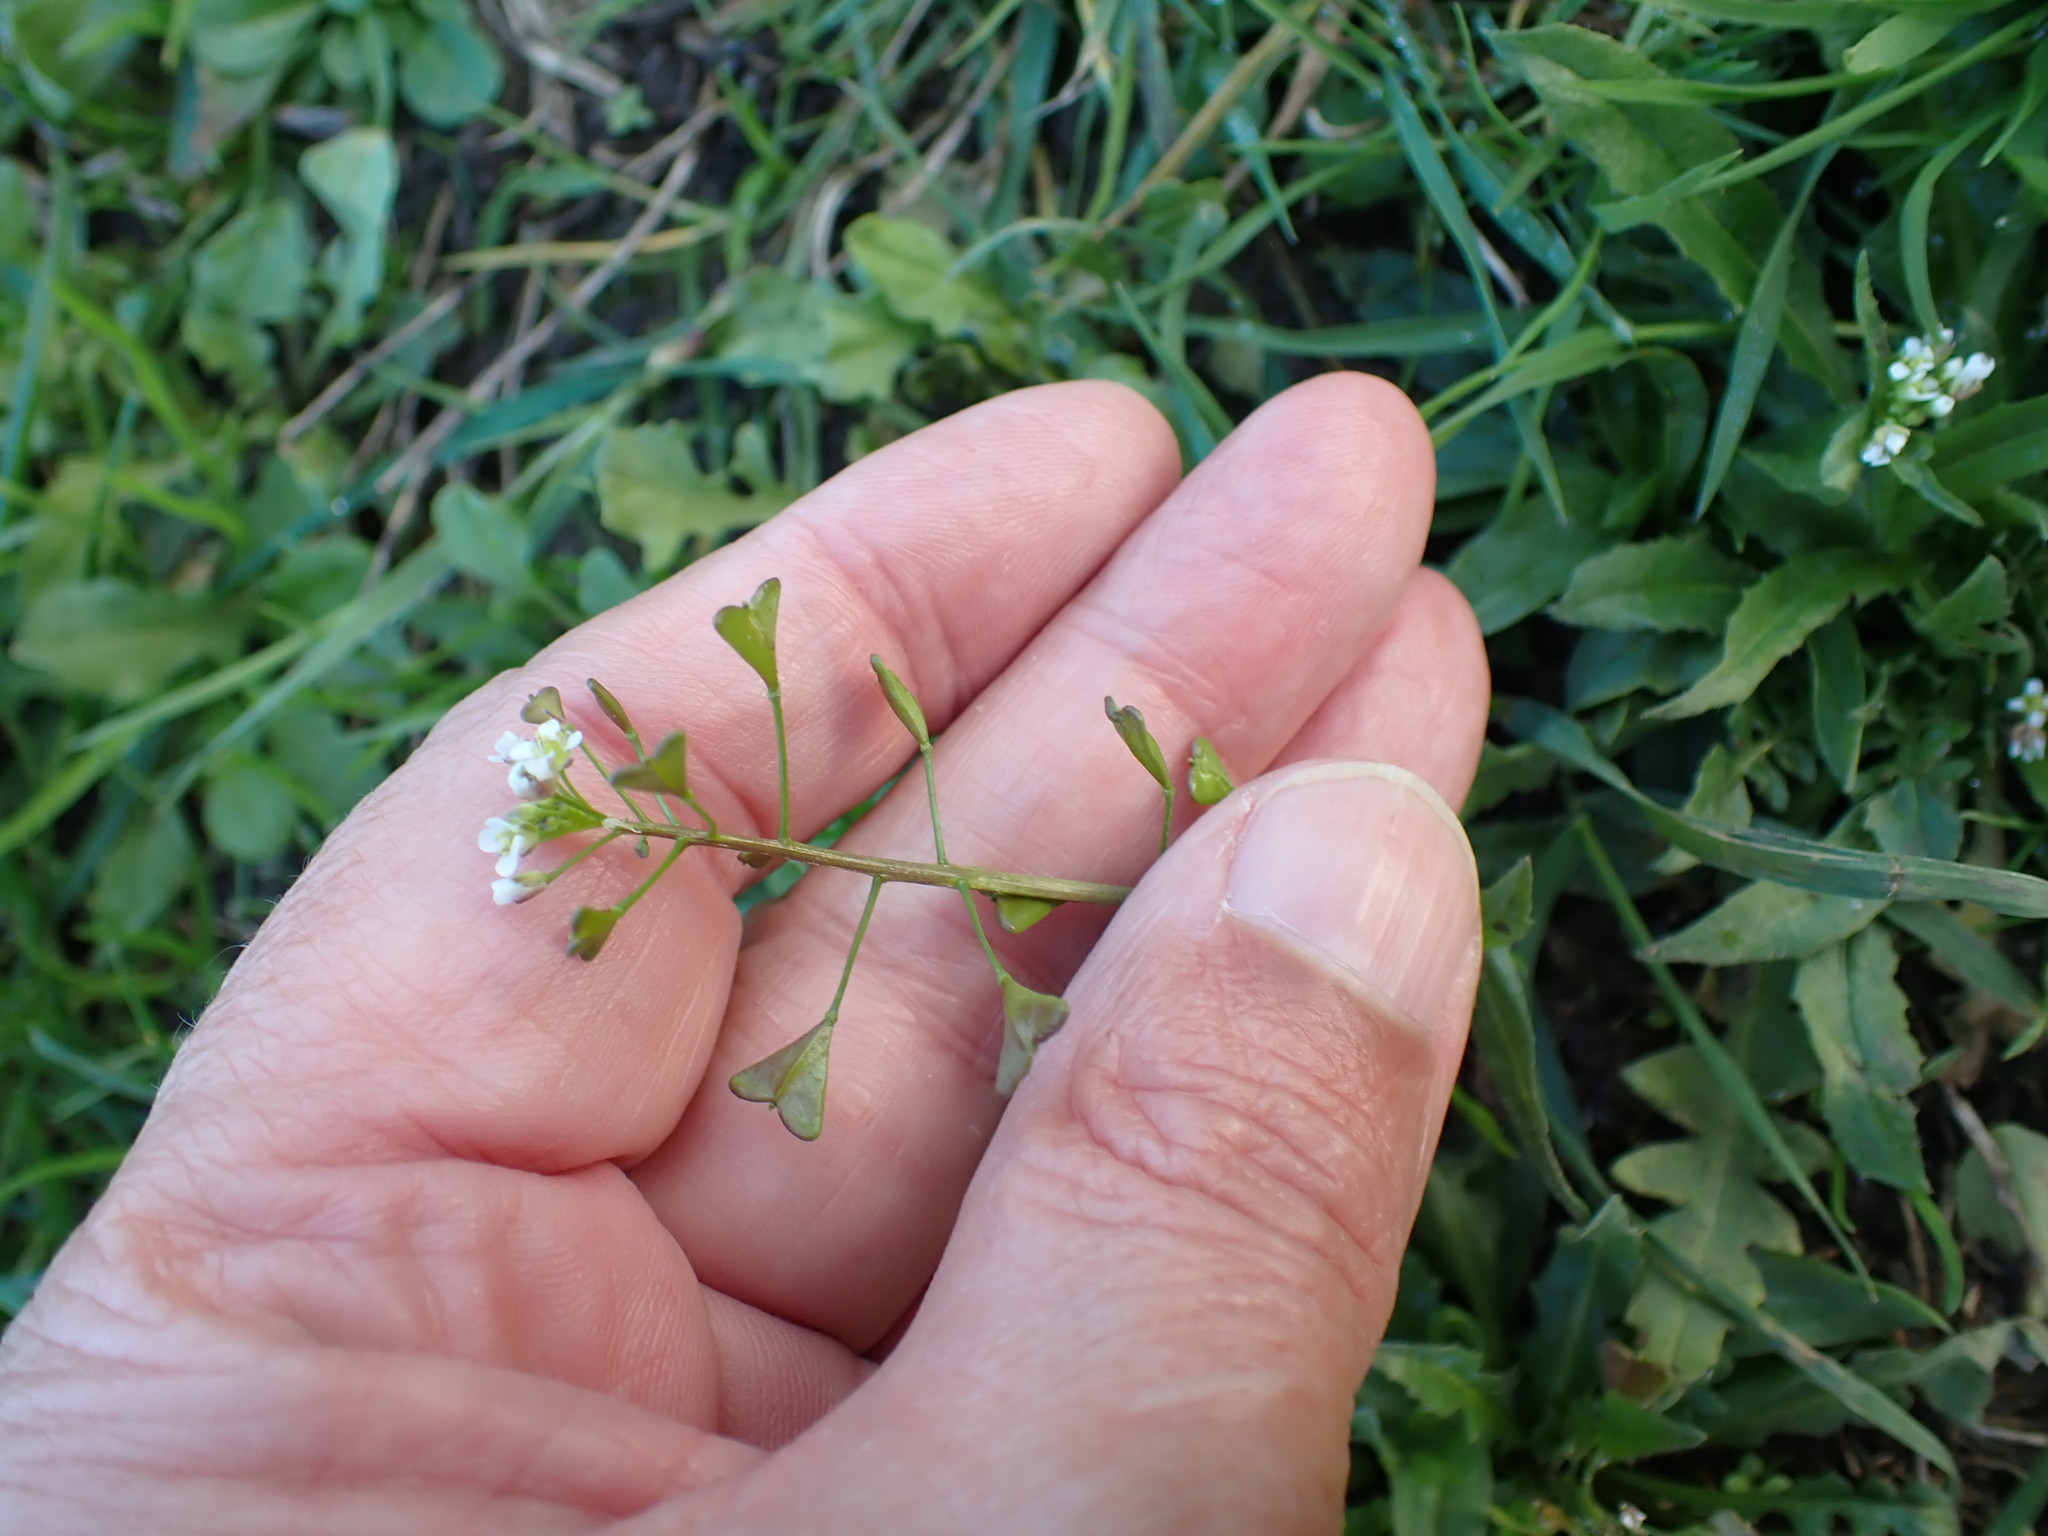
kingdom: Plantae
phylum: Tracheophyta
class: Magnoliopsida
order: Brassicales
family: Brassicaceae
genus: Capsella
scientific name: Capsella bursa-pastoris
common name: Shepherd's purse
